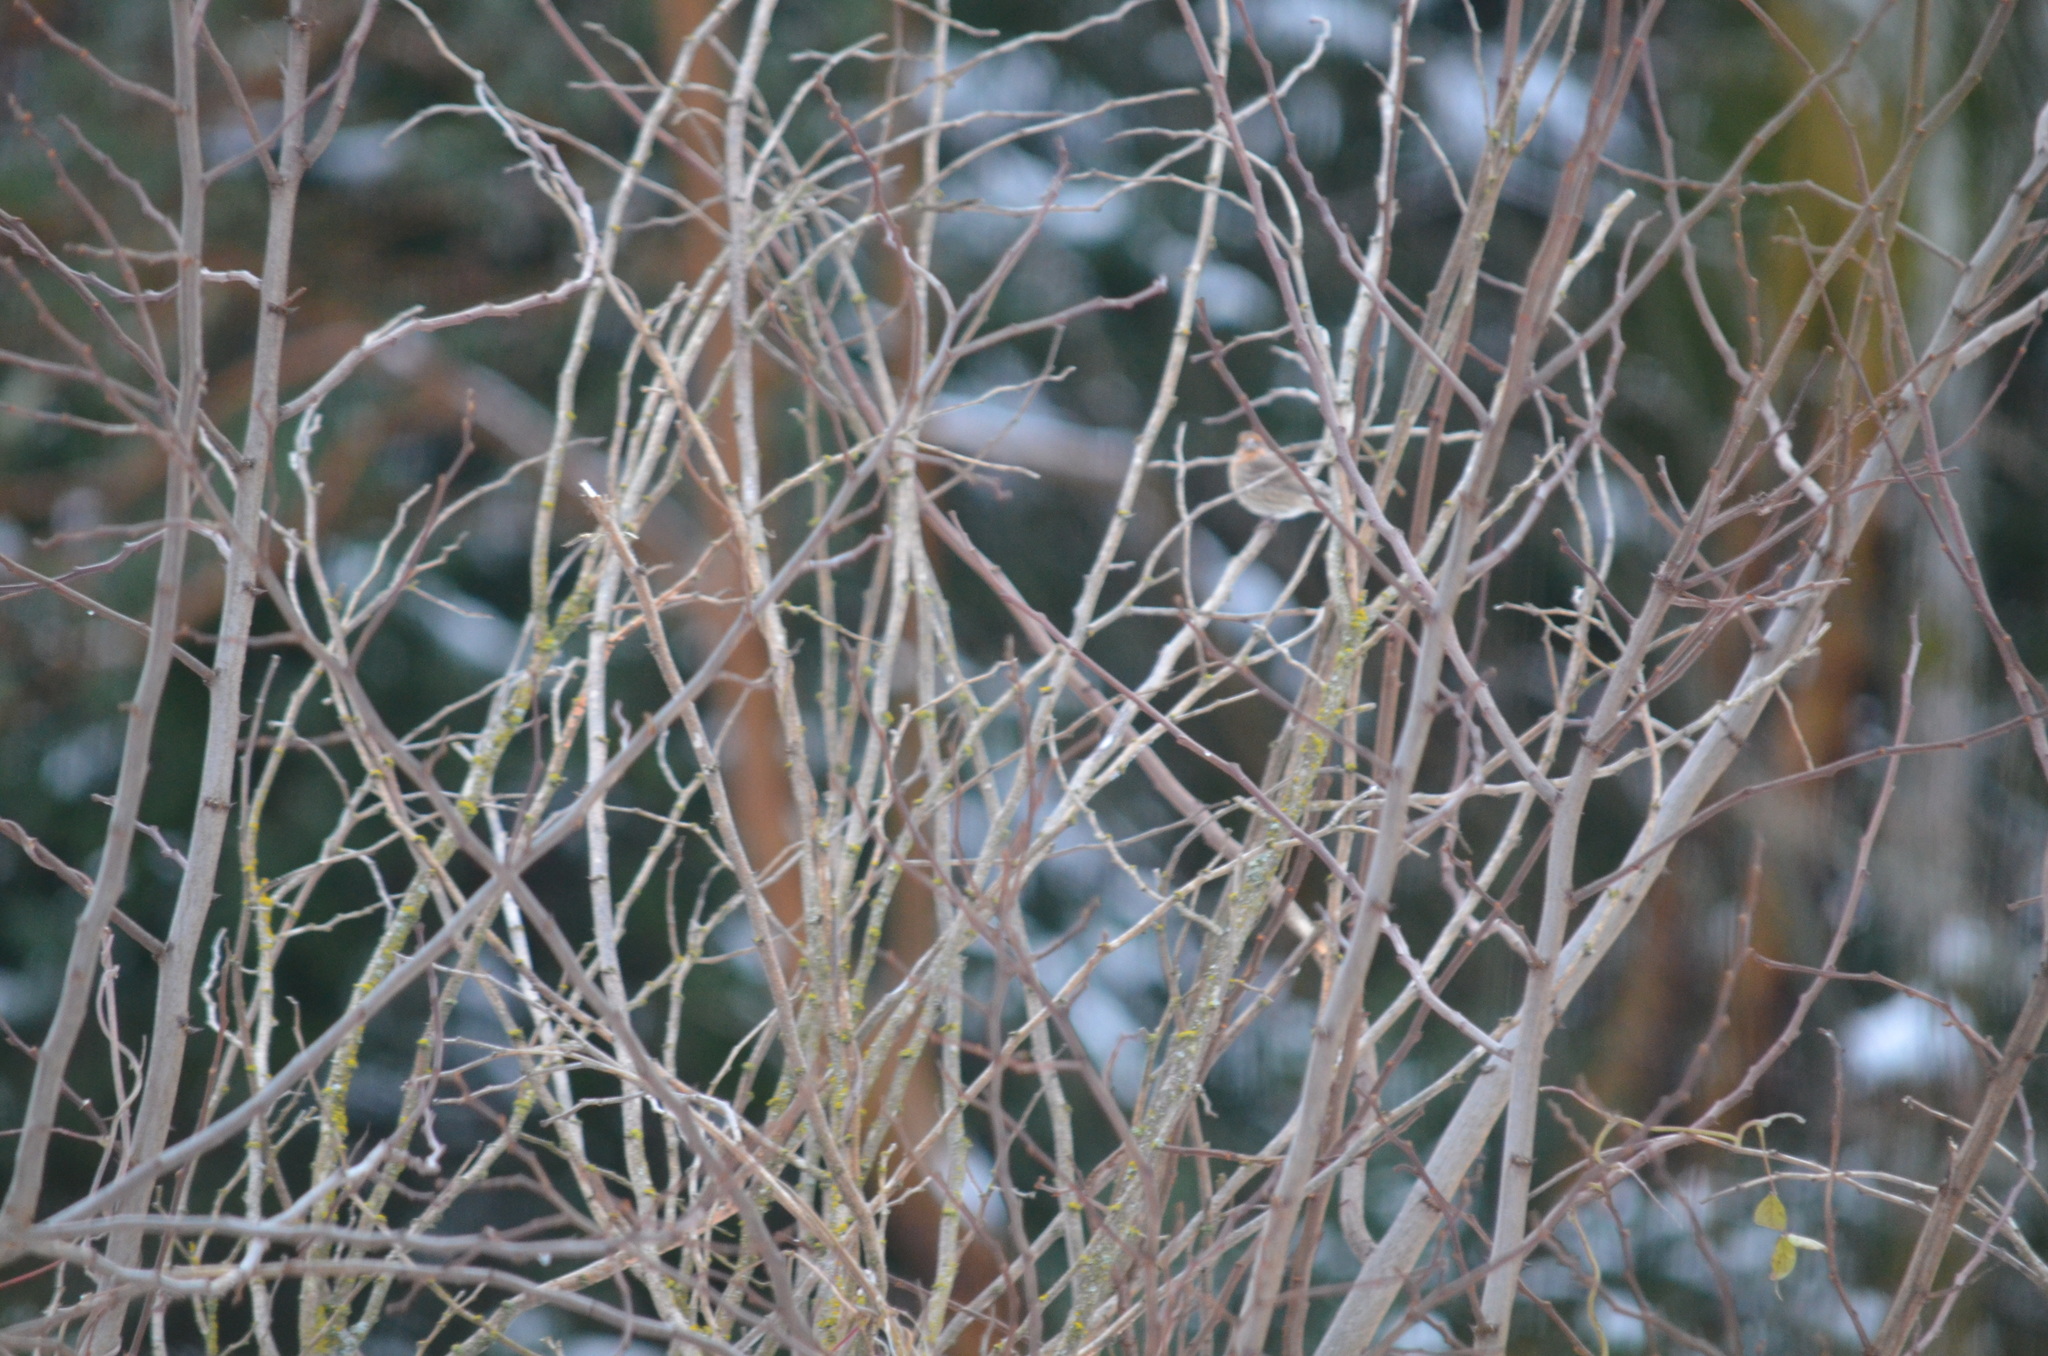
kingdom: Animalia
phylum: Chordata
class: Aves
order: Passeriformes
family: Fringillidae
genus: Haemorhous
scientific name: Haemorhous mexicanus
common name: House finch
